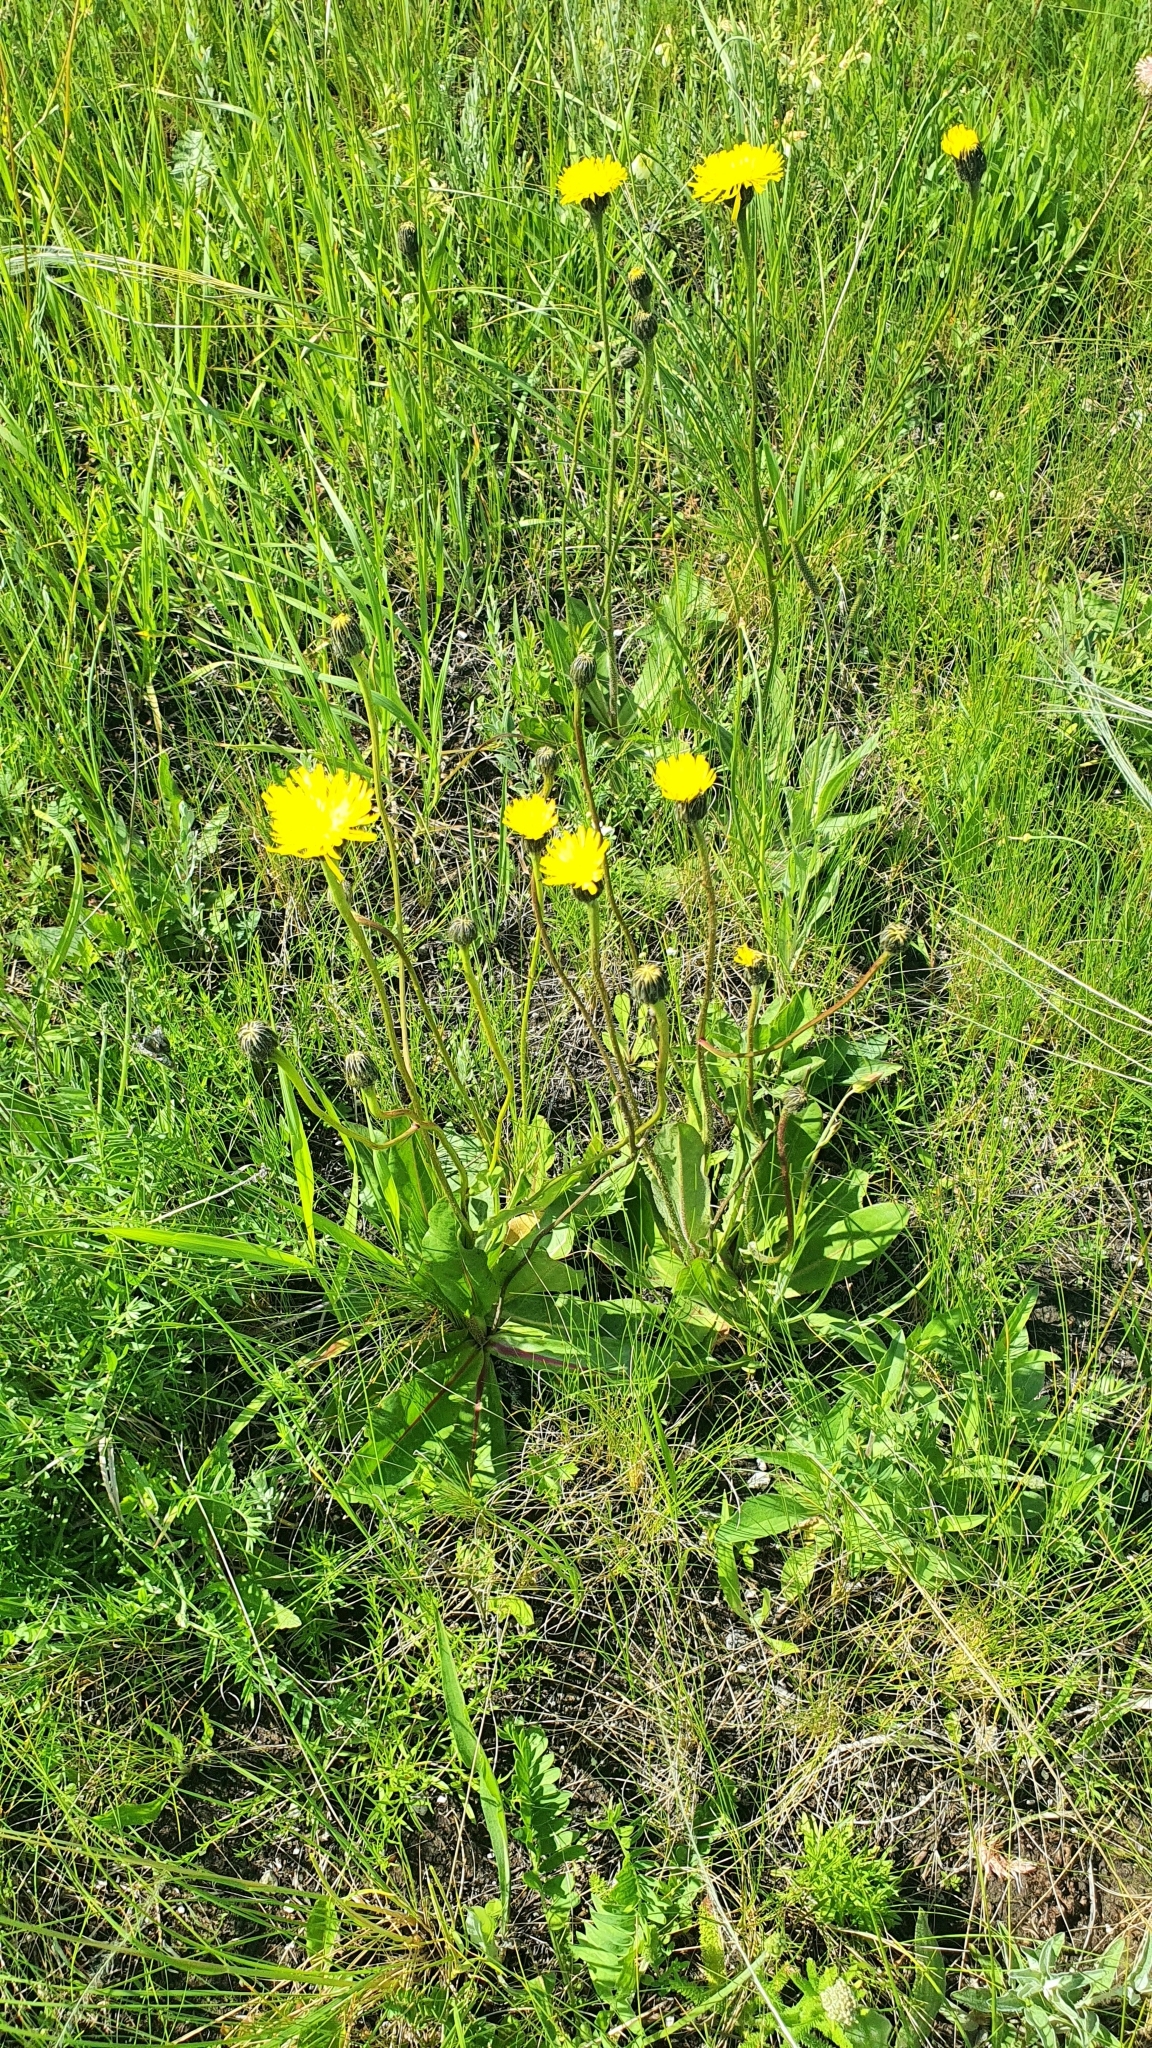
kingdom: Plantae
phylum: Tracheophyta
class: Magnoliopsida
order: Asterales
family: Asteraceae
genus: Trommsdorffia
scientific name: Trommsdorffia maculata
